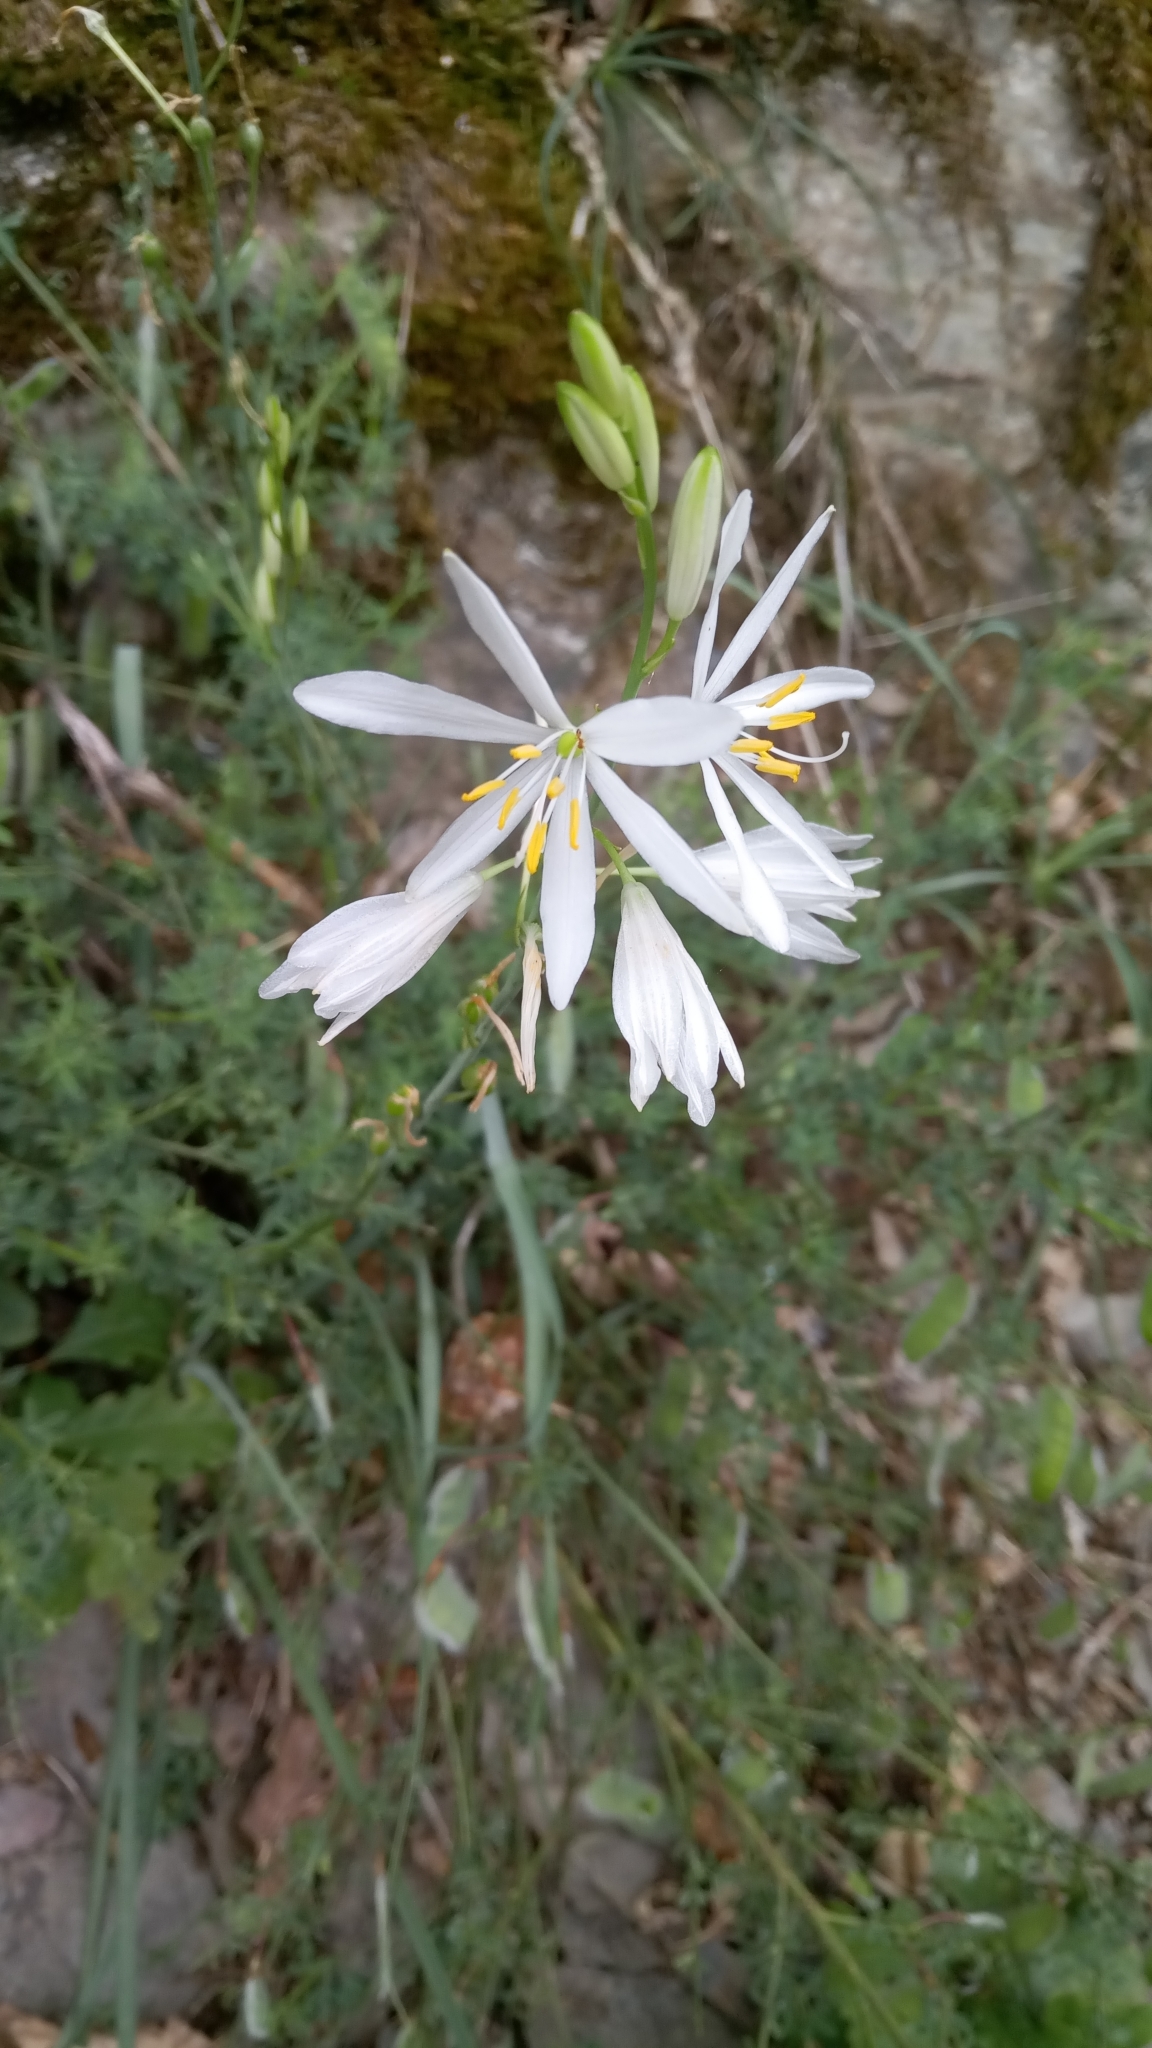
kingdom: Plantae
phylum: Tracheophyta
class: Liliopsida
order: Asparagales
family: Asparagaceae
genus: Anthericum
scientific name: Anthericum liliago
